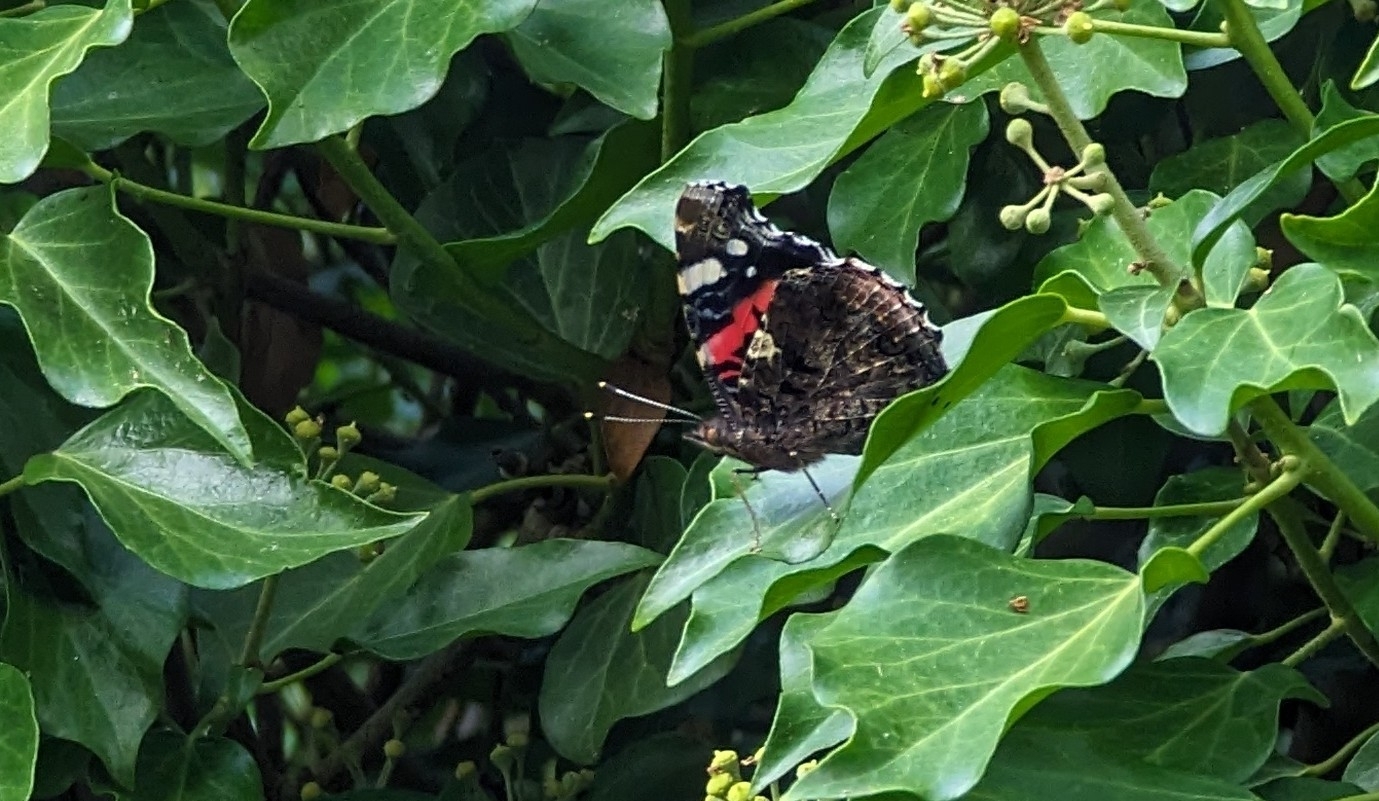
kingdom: Animalia
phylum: Arthropoda
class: Insecta
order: Lepidoptera
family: Nymphalidae
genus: Vanessa
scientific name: Vanessa atalanta
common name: Red admiral
